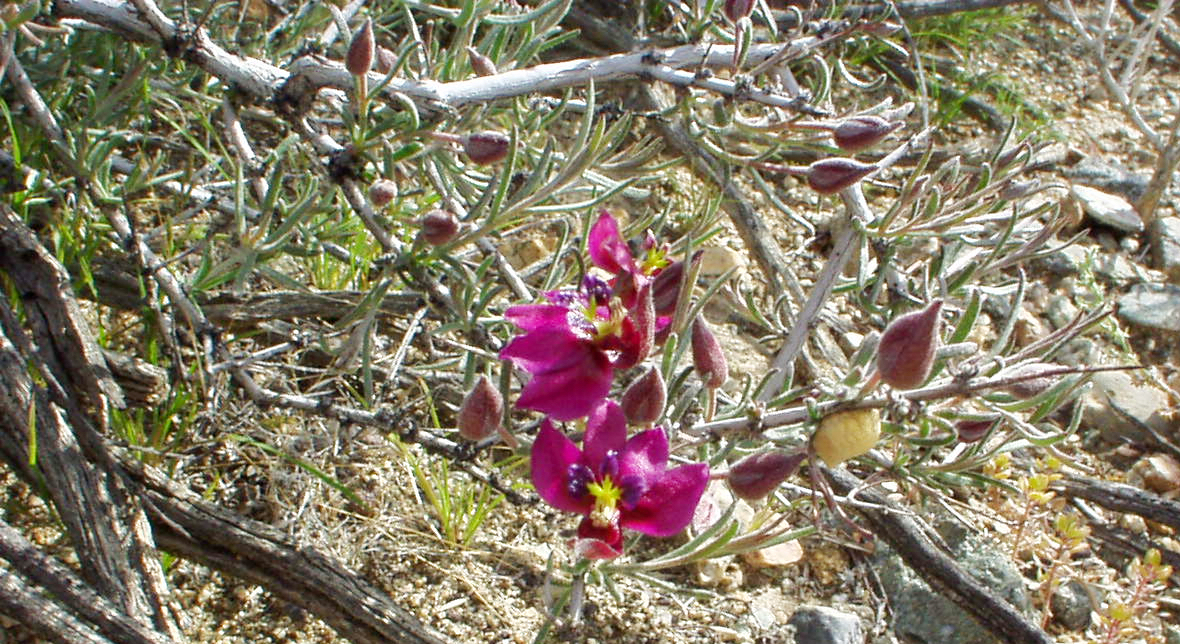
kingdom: Plantae
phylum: Tracheophyta
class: Magnoliopsida
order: Zygophyllales
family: Krameriaceae
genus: Krameria
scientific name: Krameria erecta
